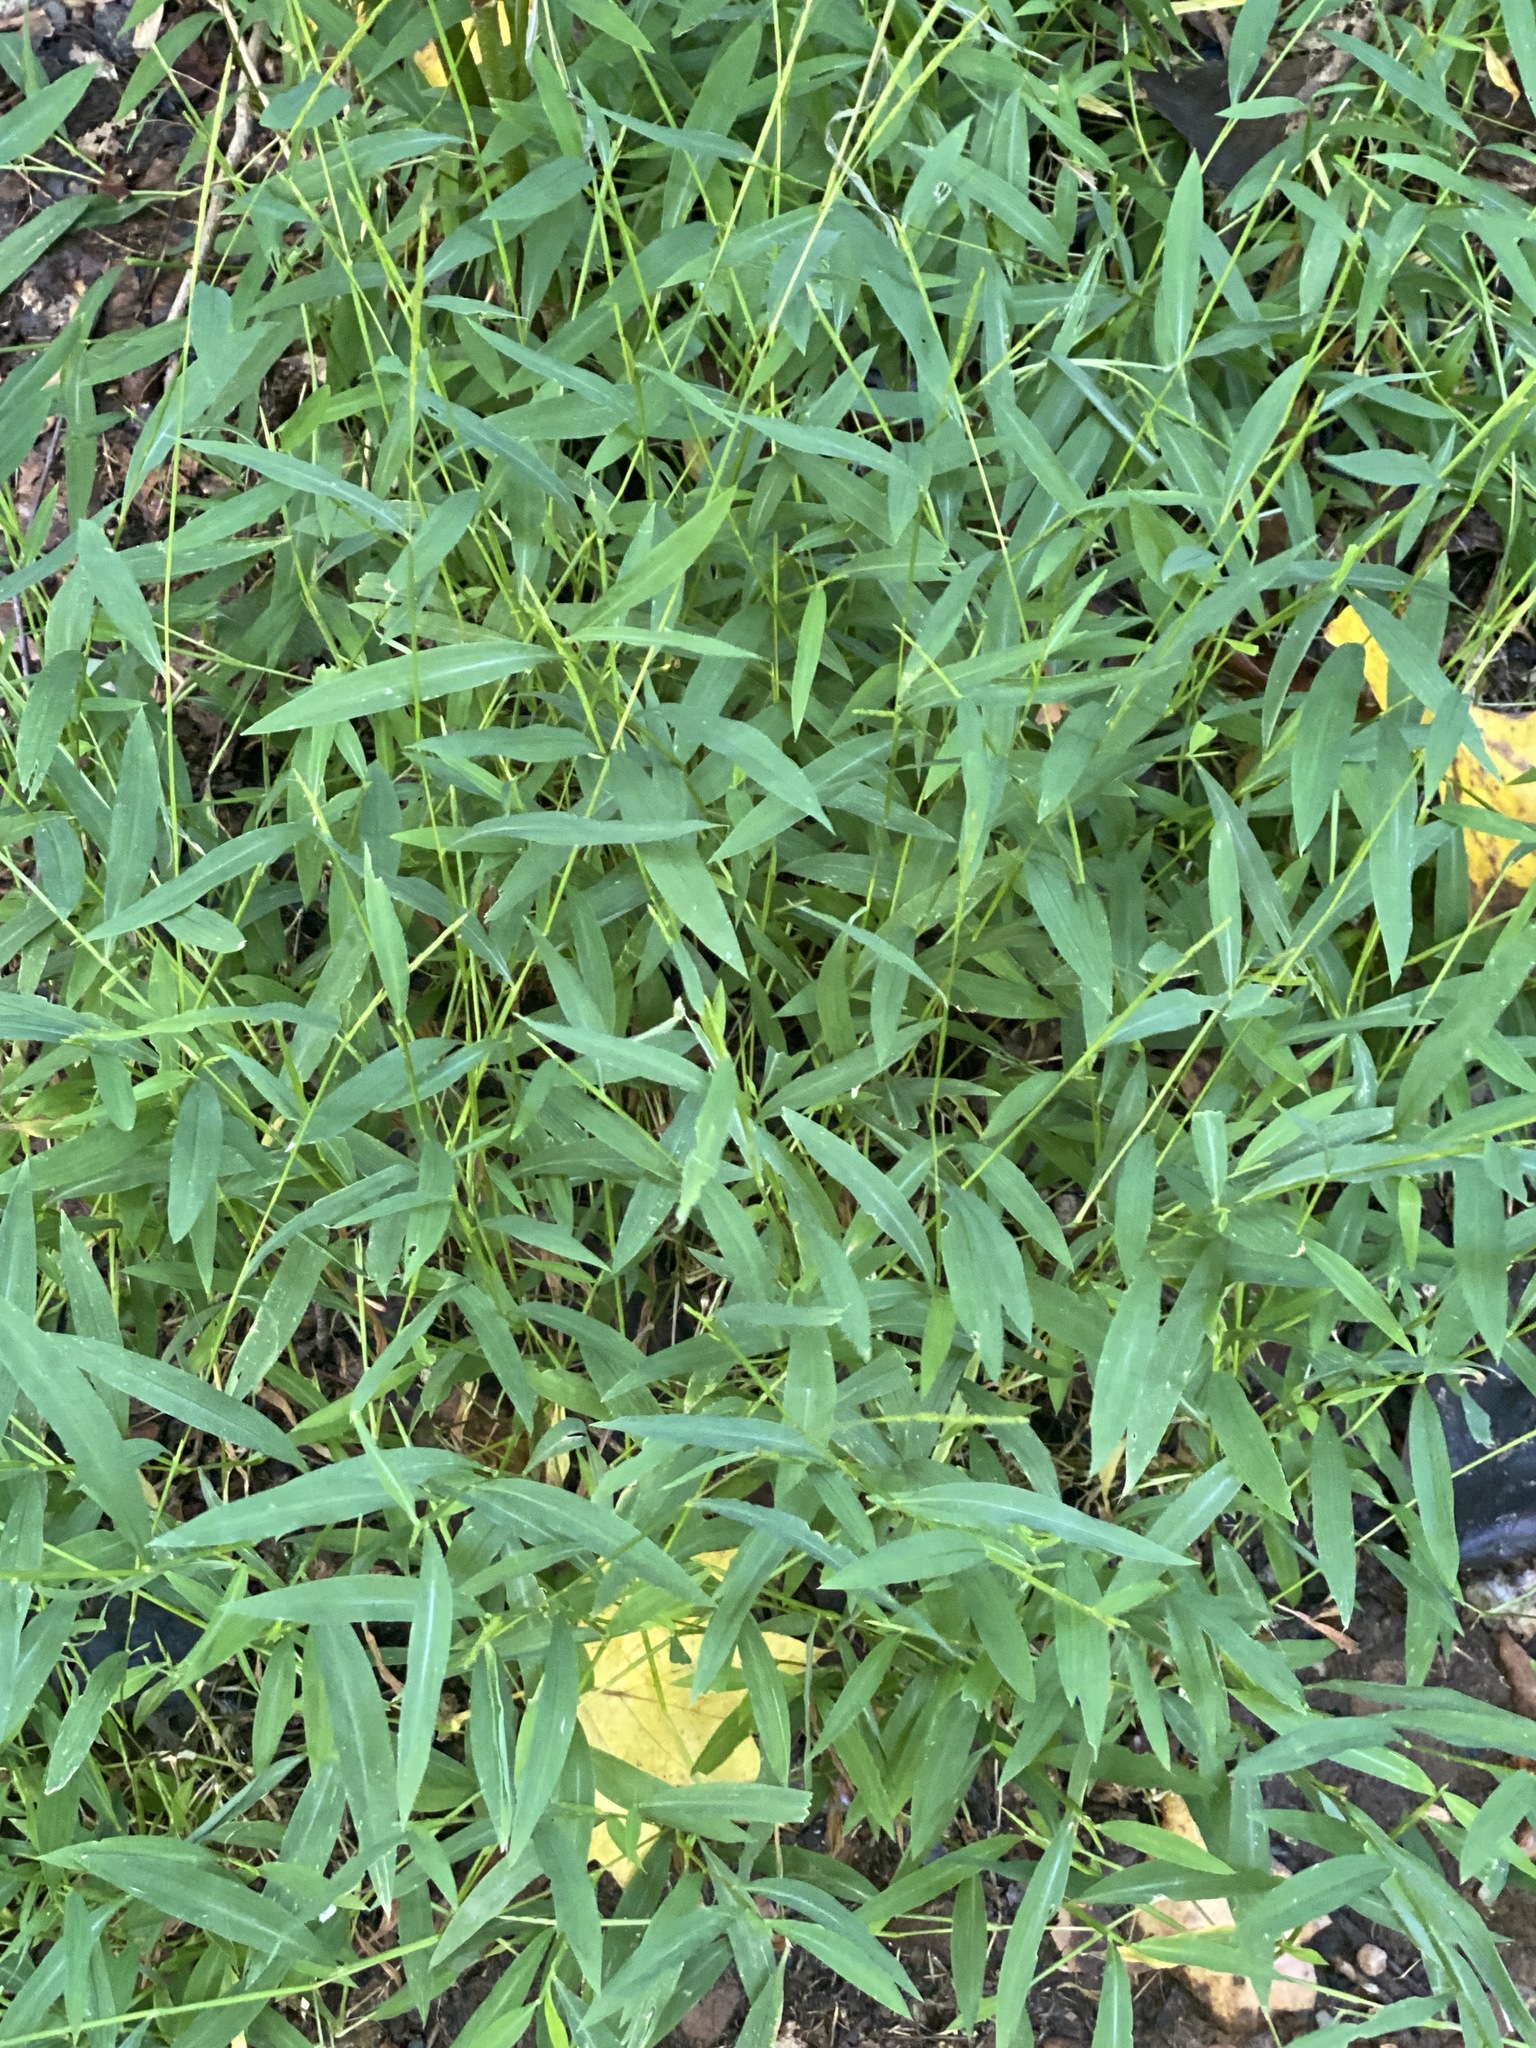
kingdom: Plantae
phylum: Tracheophyta
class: Liliopsida
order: Poales
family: Poaceae
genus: Microstegium
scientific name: Microstegium vimineum
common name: Japanese stiltgrass
